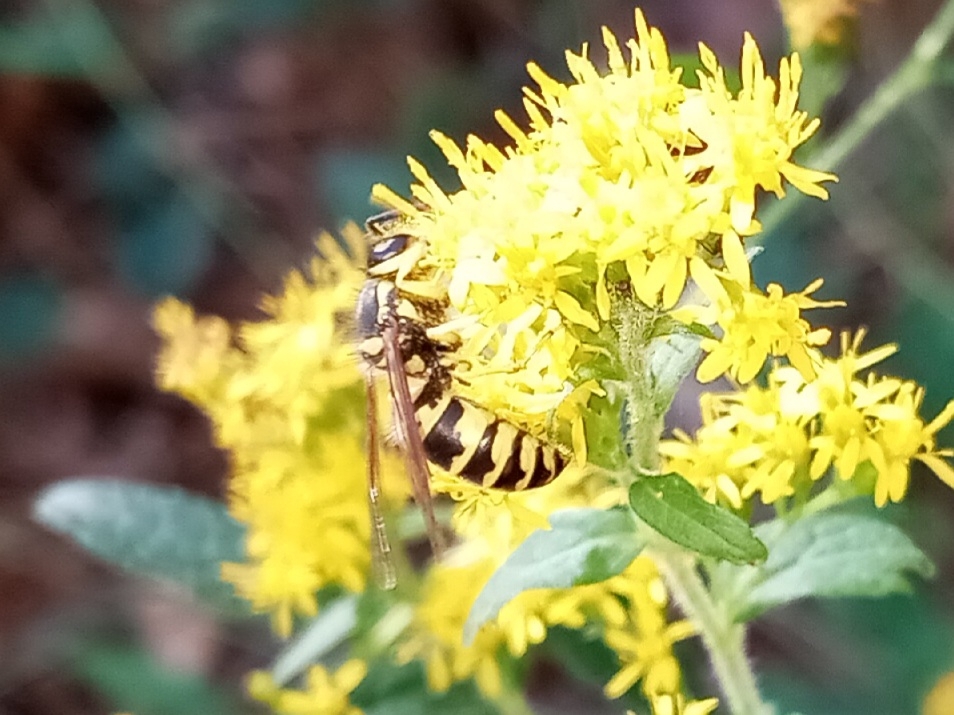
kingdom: Animalia
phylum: Arthropoda
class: Insecta
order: Hymenoptera
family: Vespidae
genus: Vespula
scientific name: Vespula maculifrons
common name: Eastern yellowjacket
